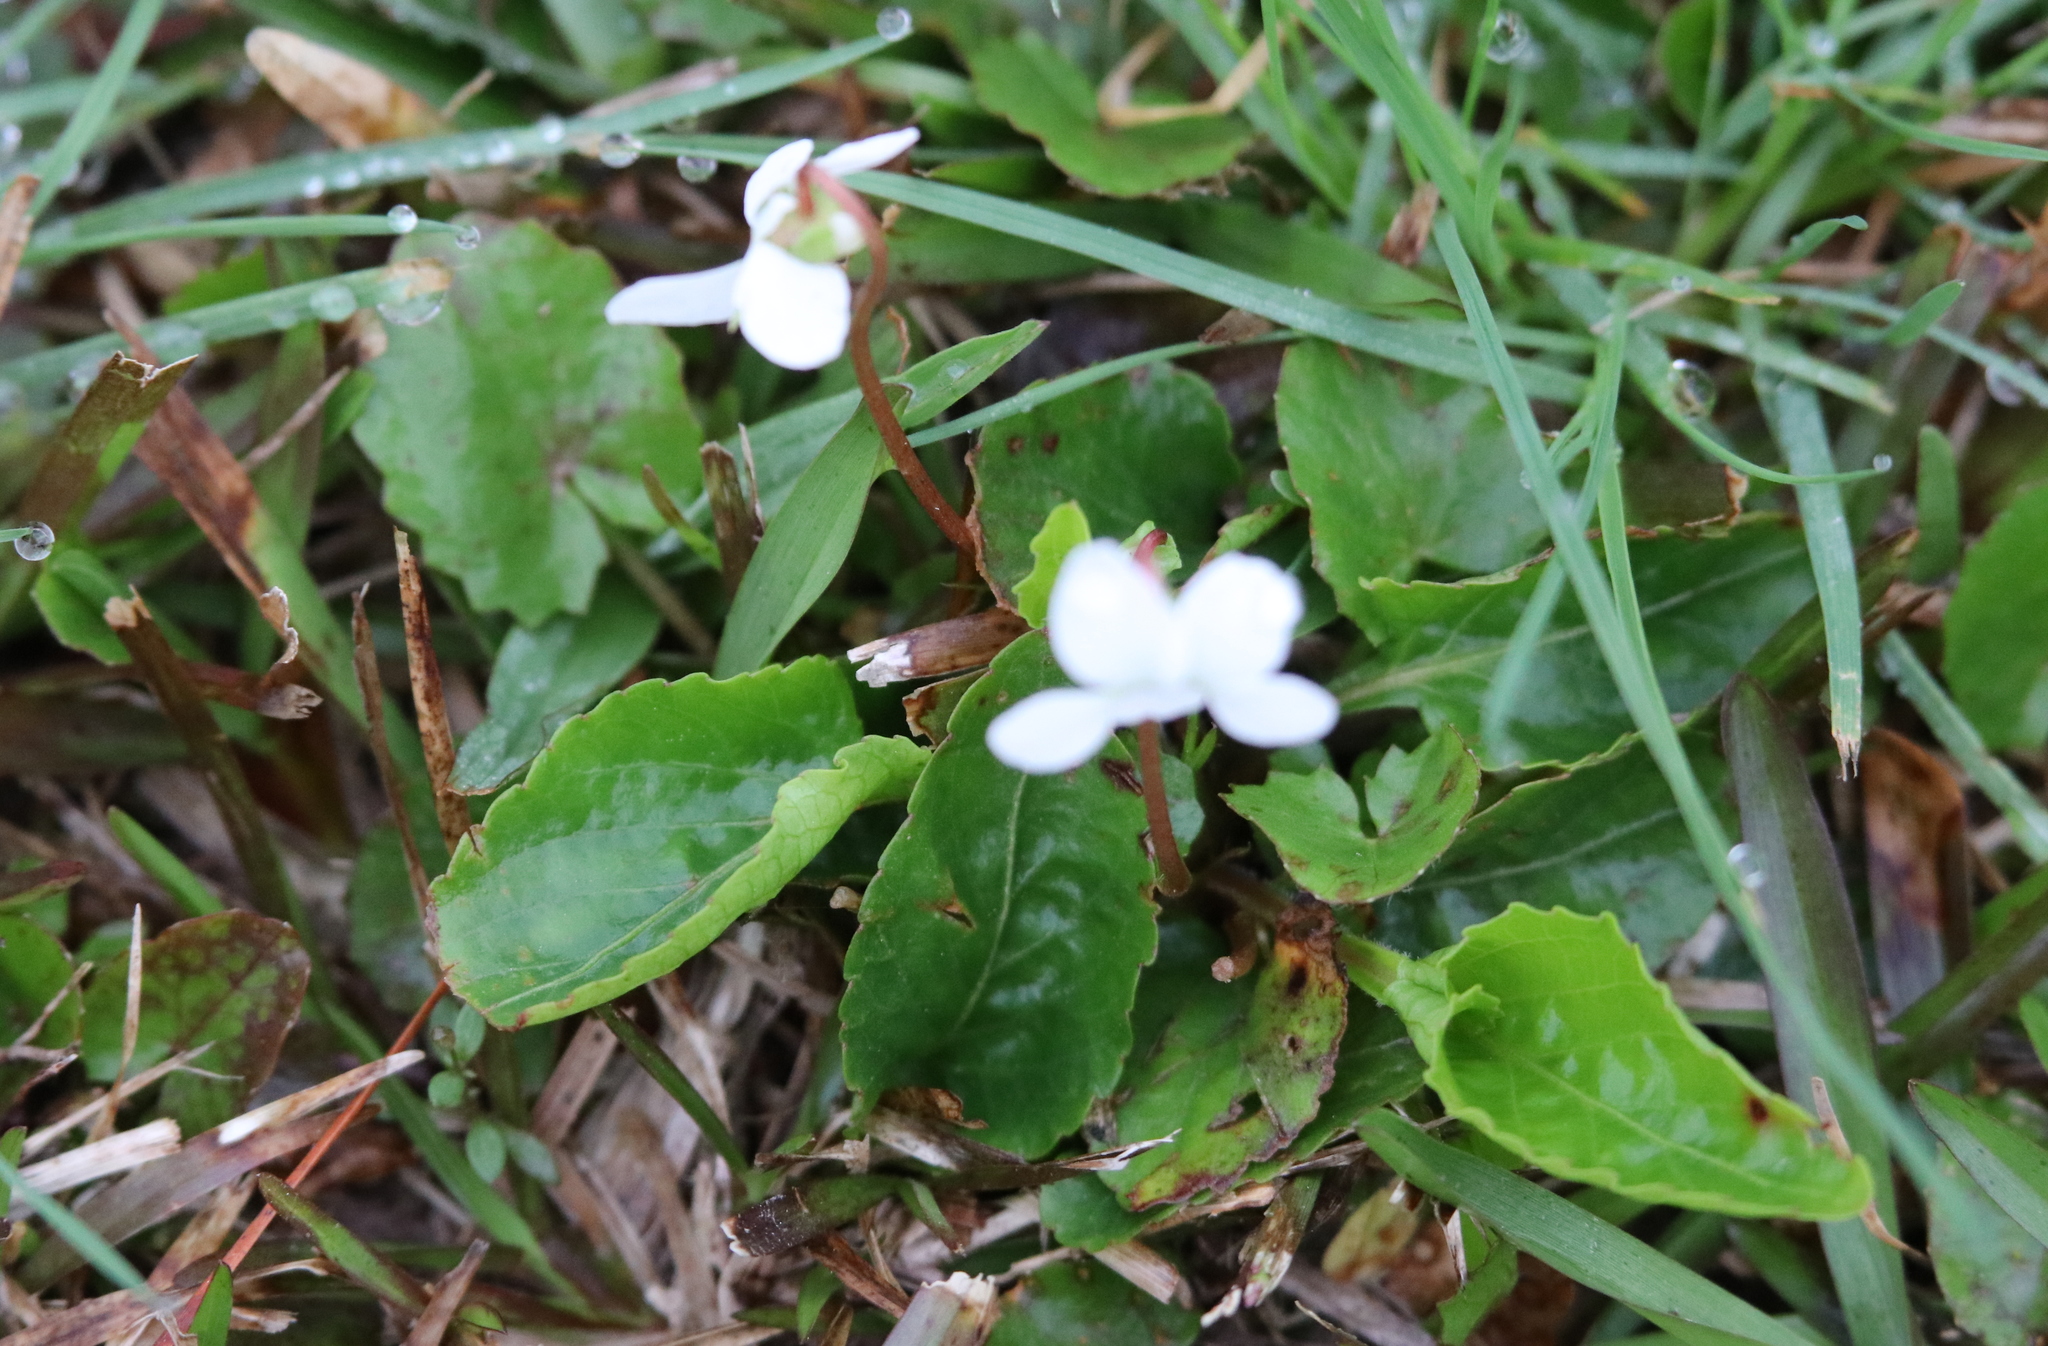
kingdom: Plantae
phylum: Tracheophyta
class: Magnoliopsida
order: Malpighiales
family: Violaceae
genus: Viola
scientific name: Viola primulifolia
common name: Primrose-leaf violet
